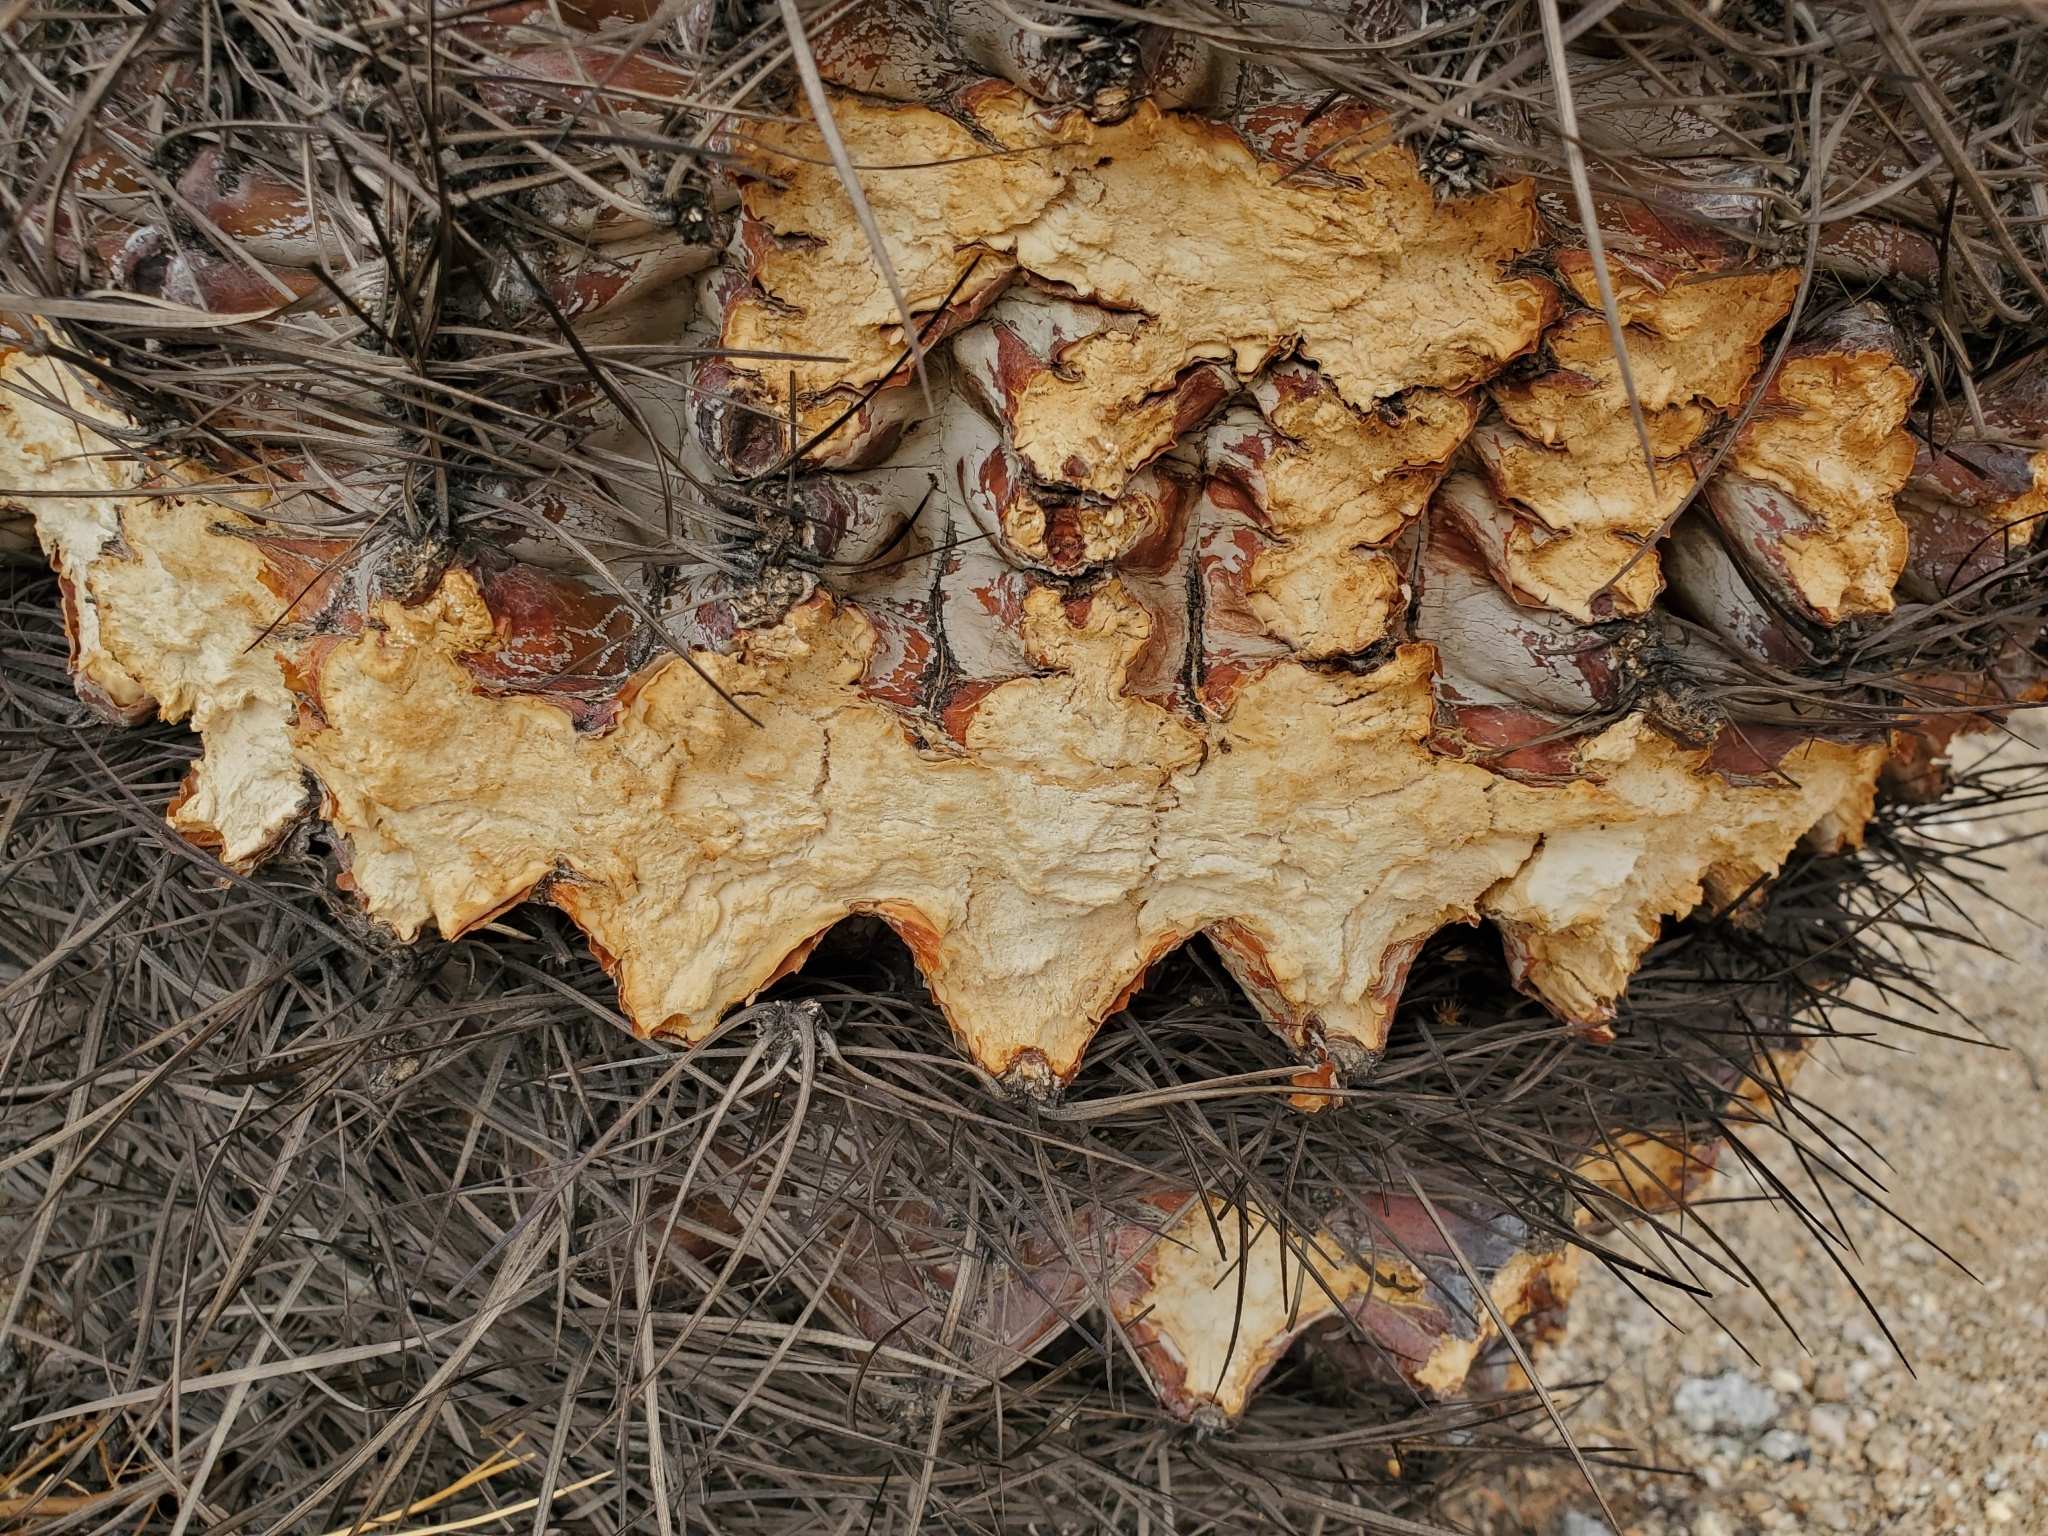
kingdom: Plantae
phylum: Tracheophyta
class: Magnoliopsida
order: Caryophyllales
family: Cactaceae
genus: Ferocactus
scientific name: Ferocactus cylindraceus
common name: California barrel cactus
